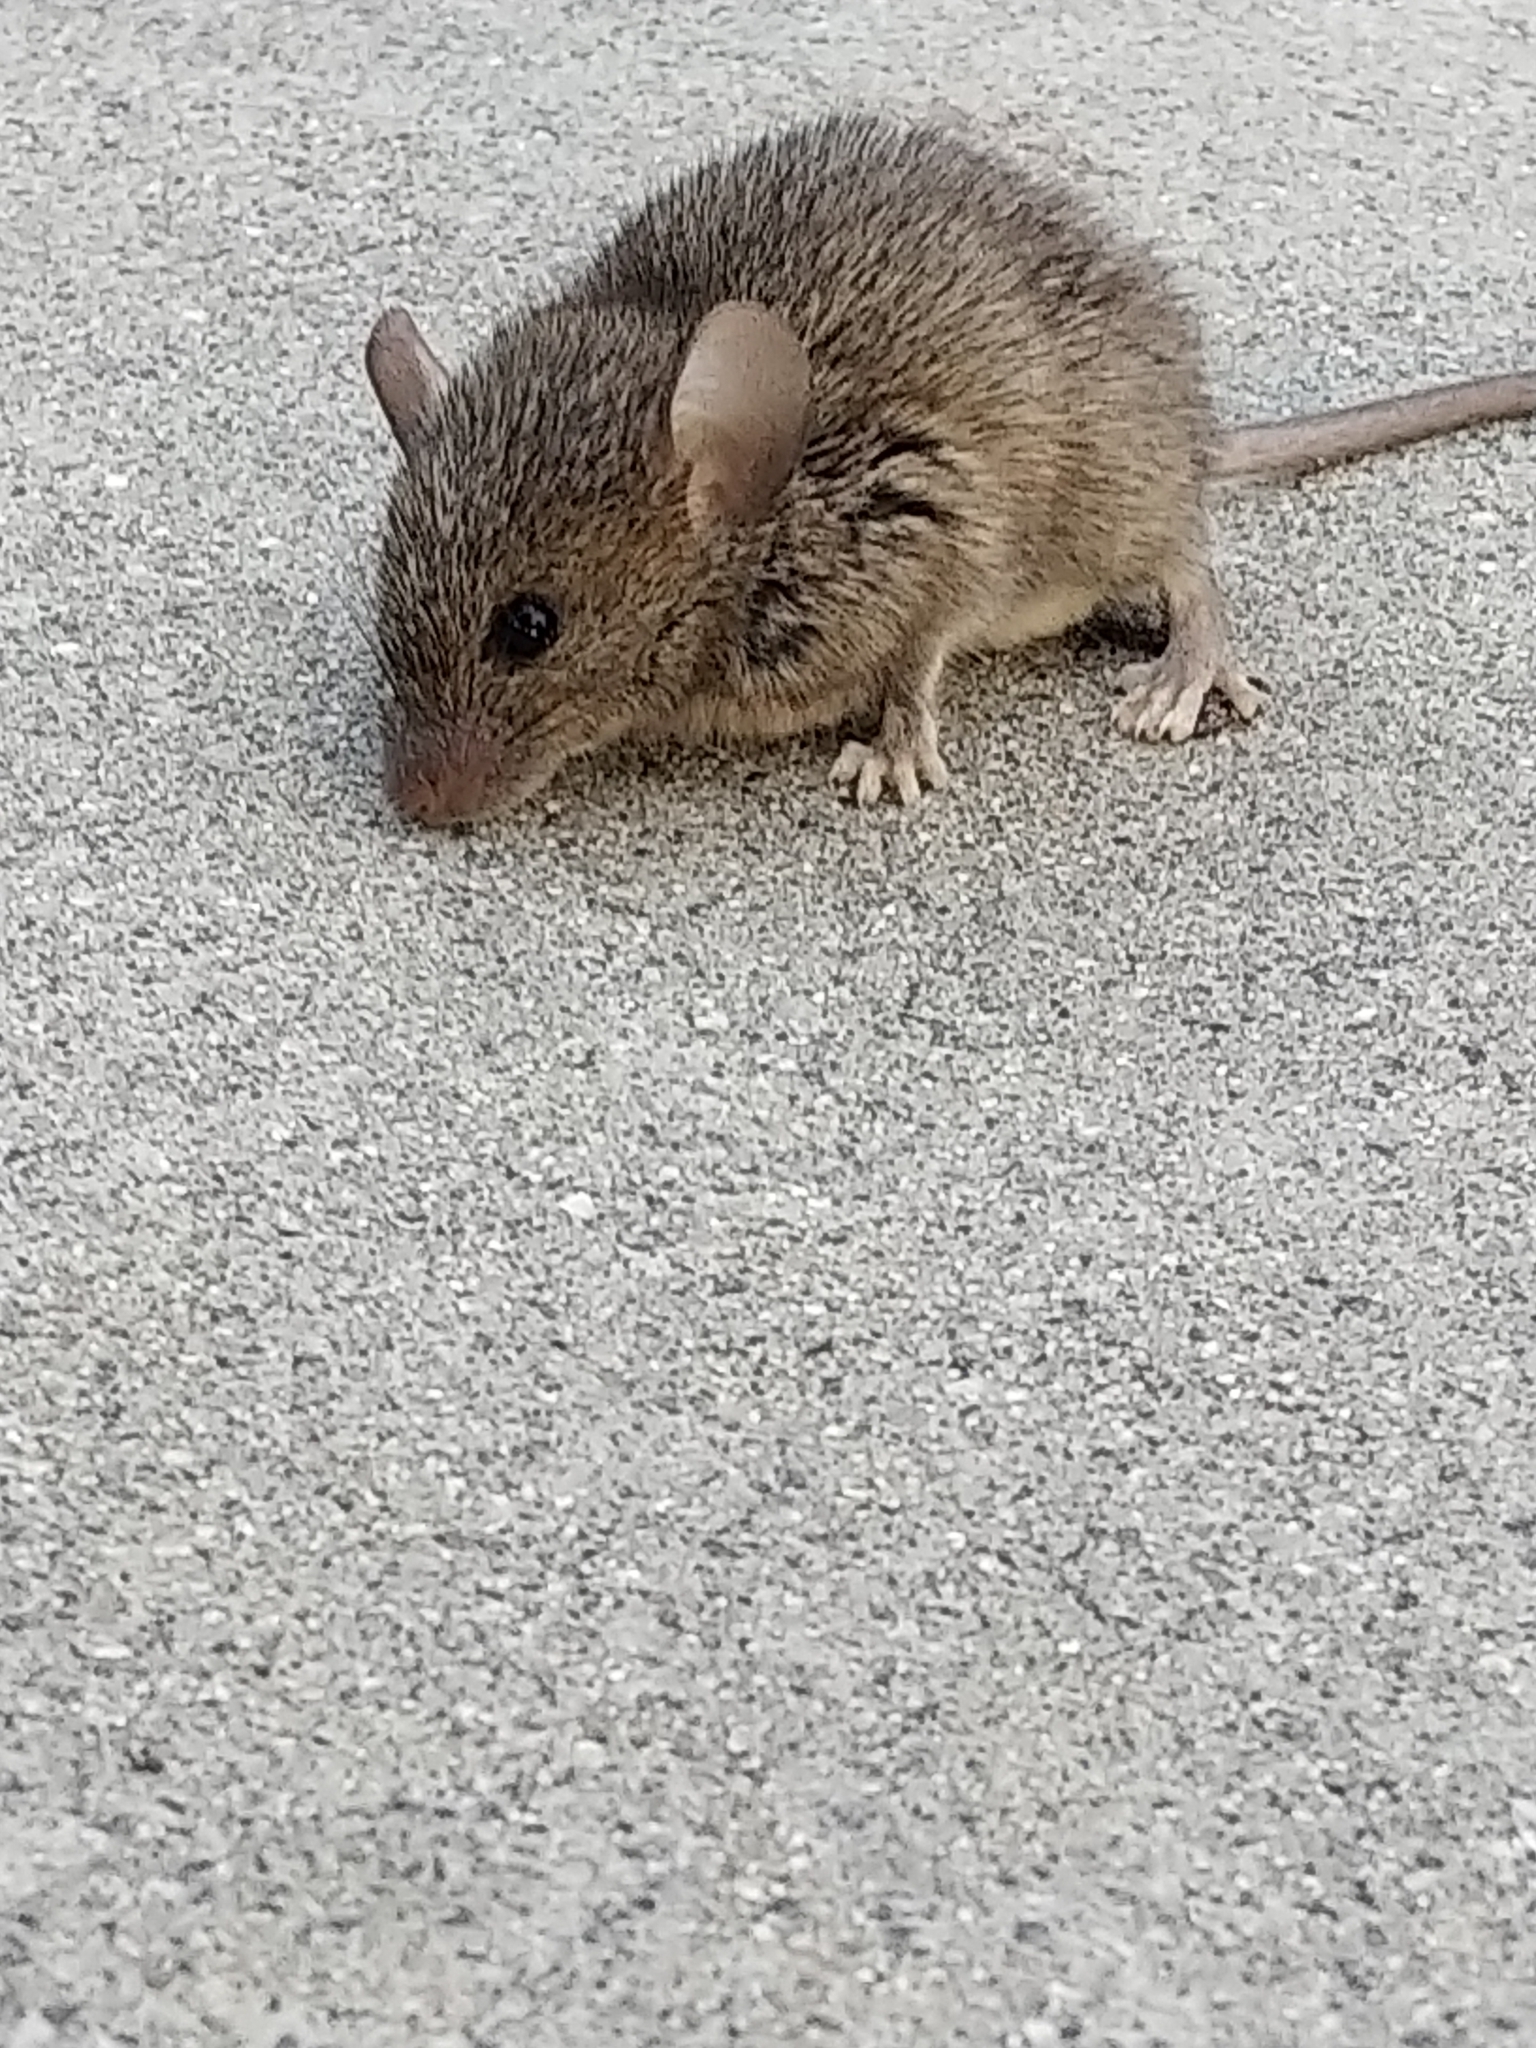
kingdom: Animalia
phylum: Chordata
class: Mammalia
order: Rodentia
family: Muridae
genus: Mus
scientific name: Mus musculus
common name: House mouse
